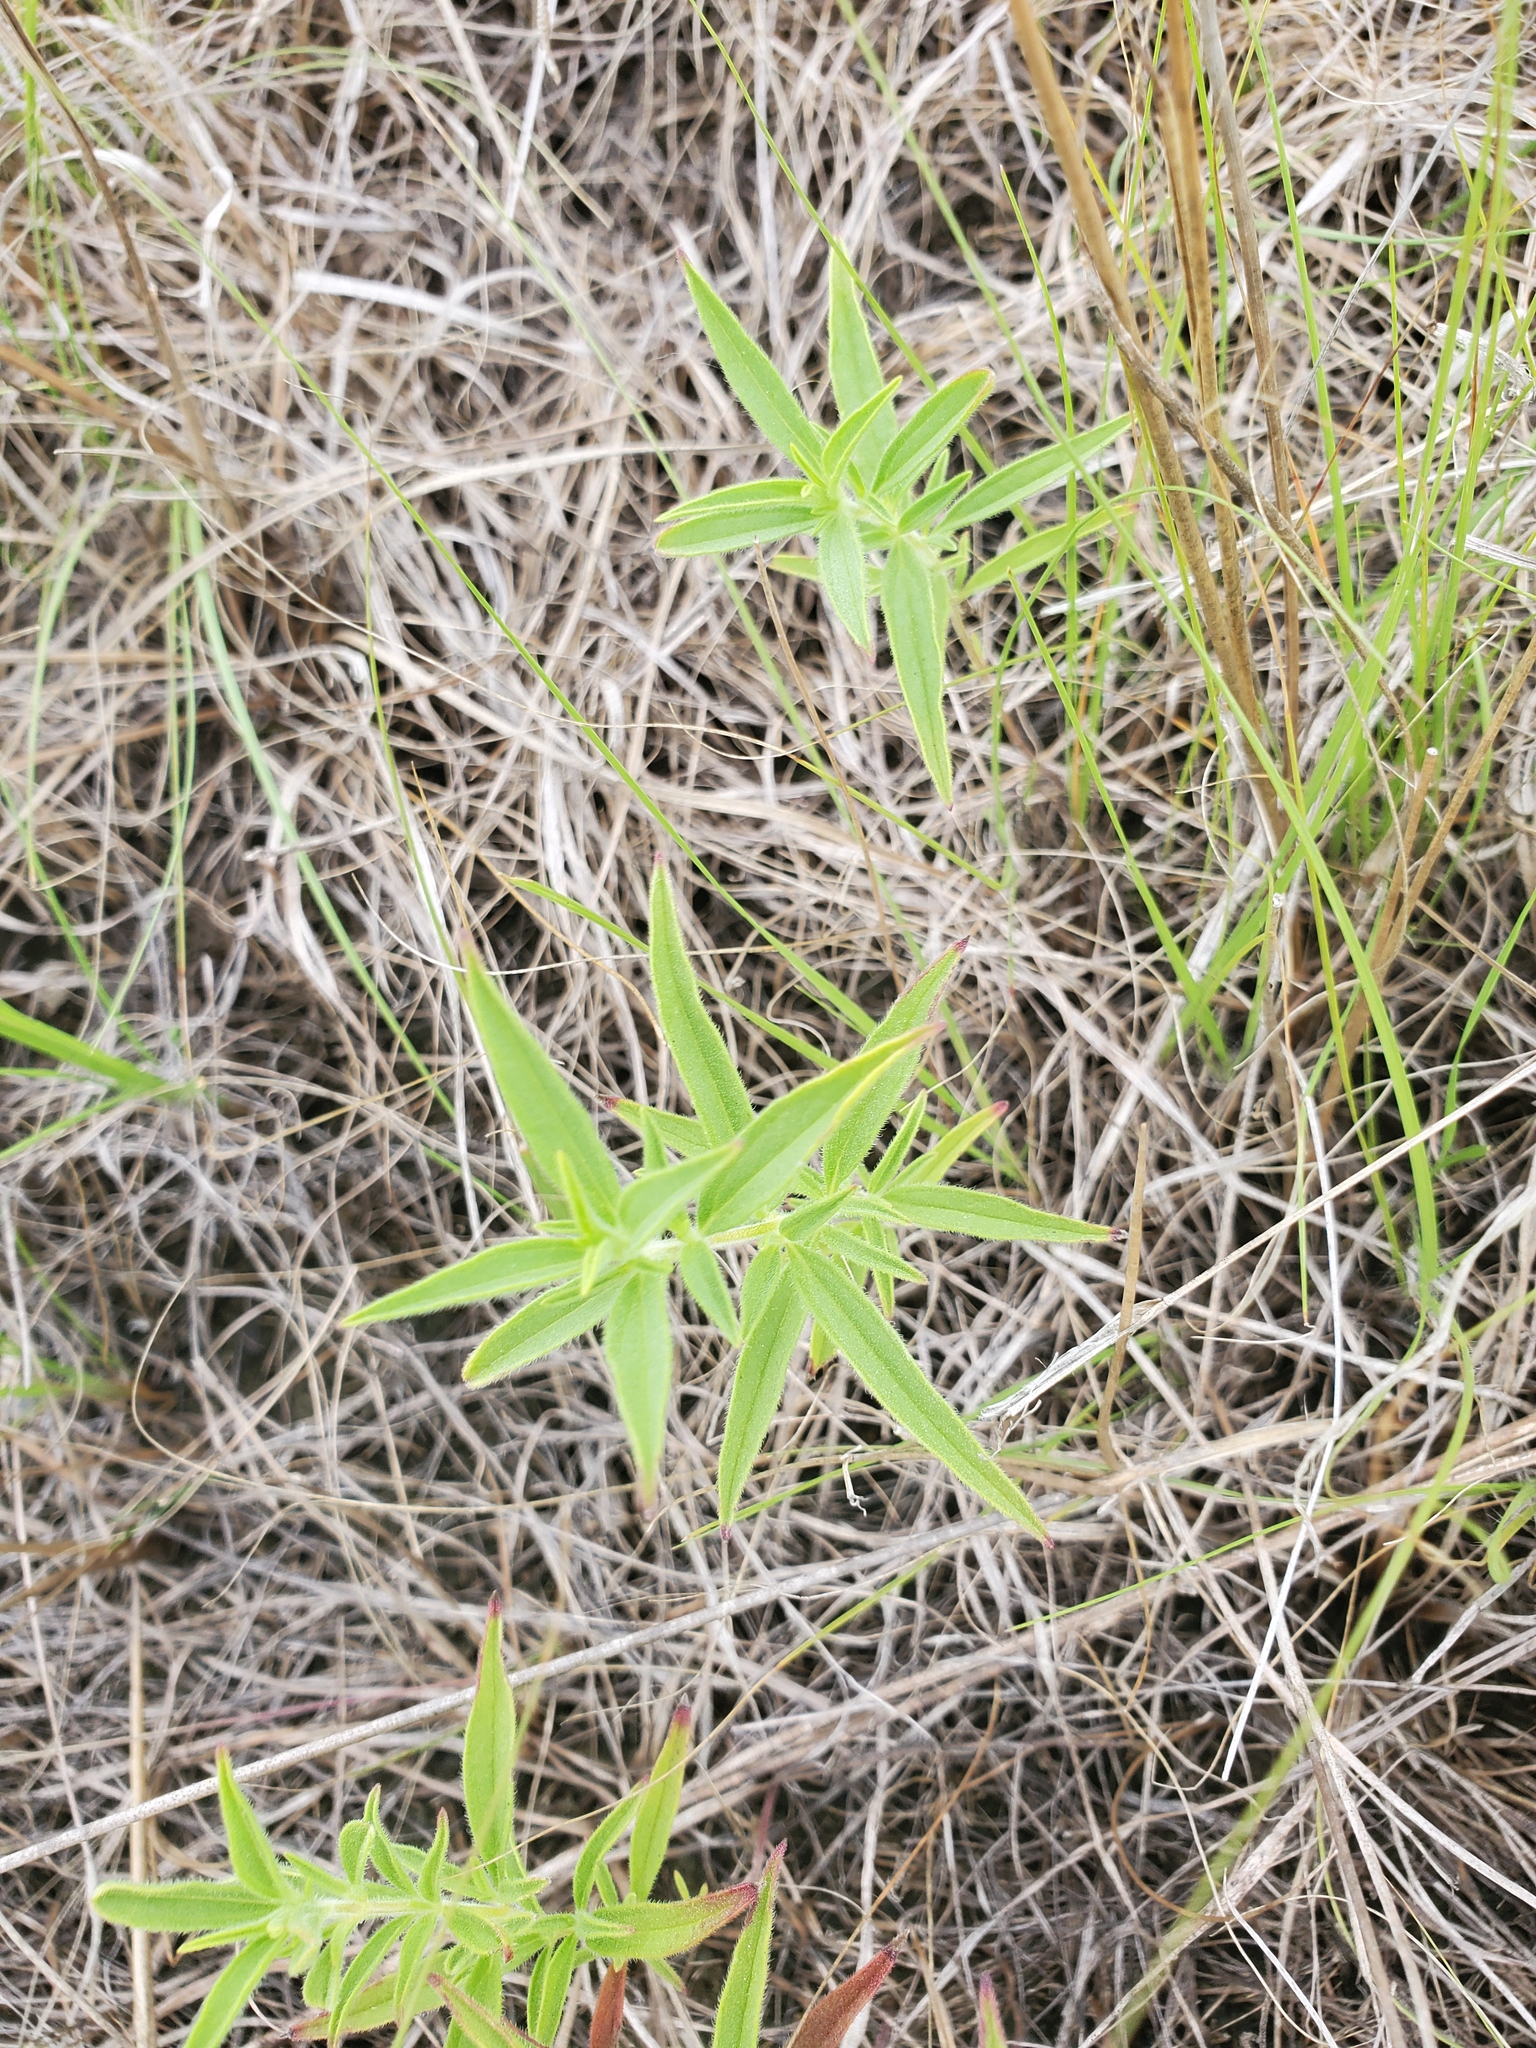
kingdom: Plantae
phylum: Tracheophyta
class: Magnoliopsida
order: Lamiales
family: Lamiaceae
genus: Trichostema
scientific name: Trichostema brachiatum
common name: False pennyroyal
